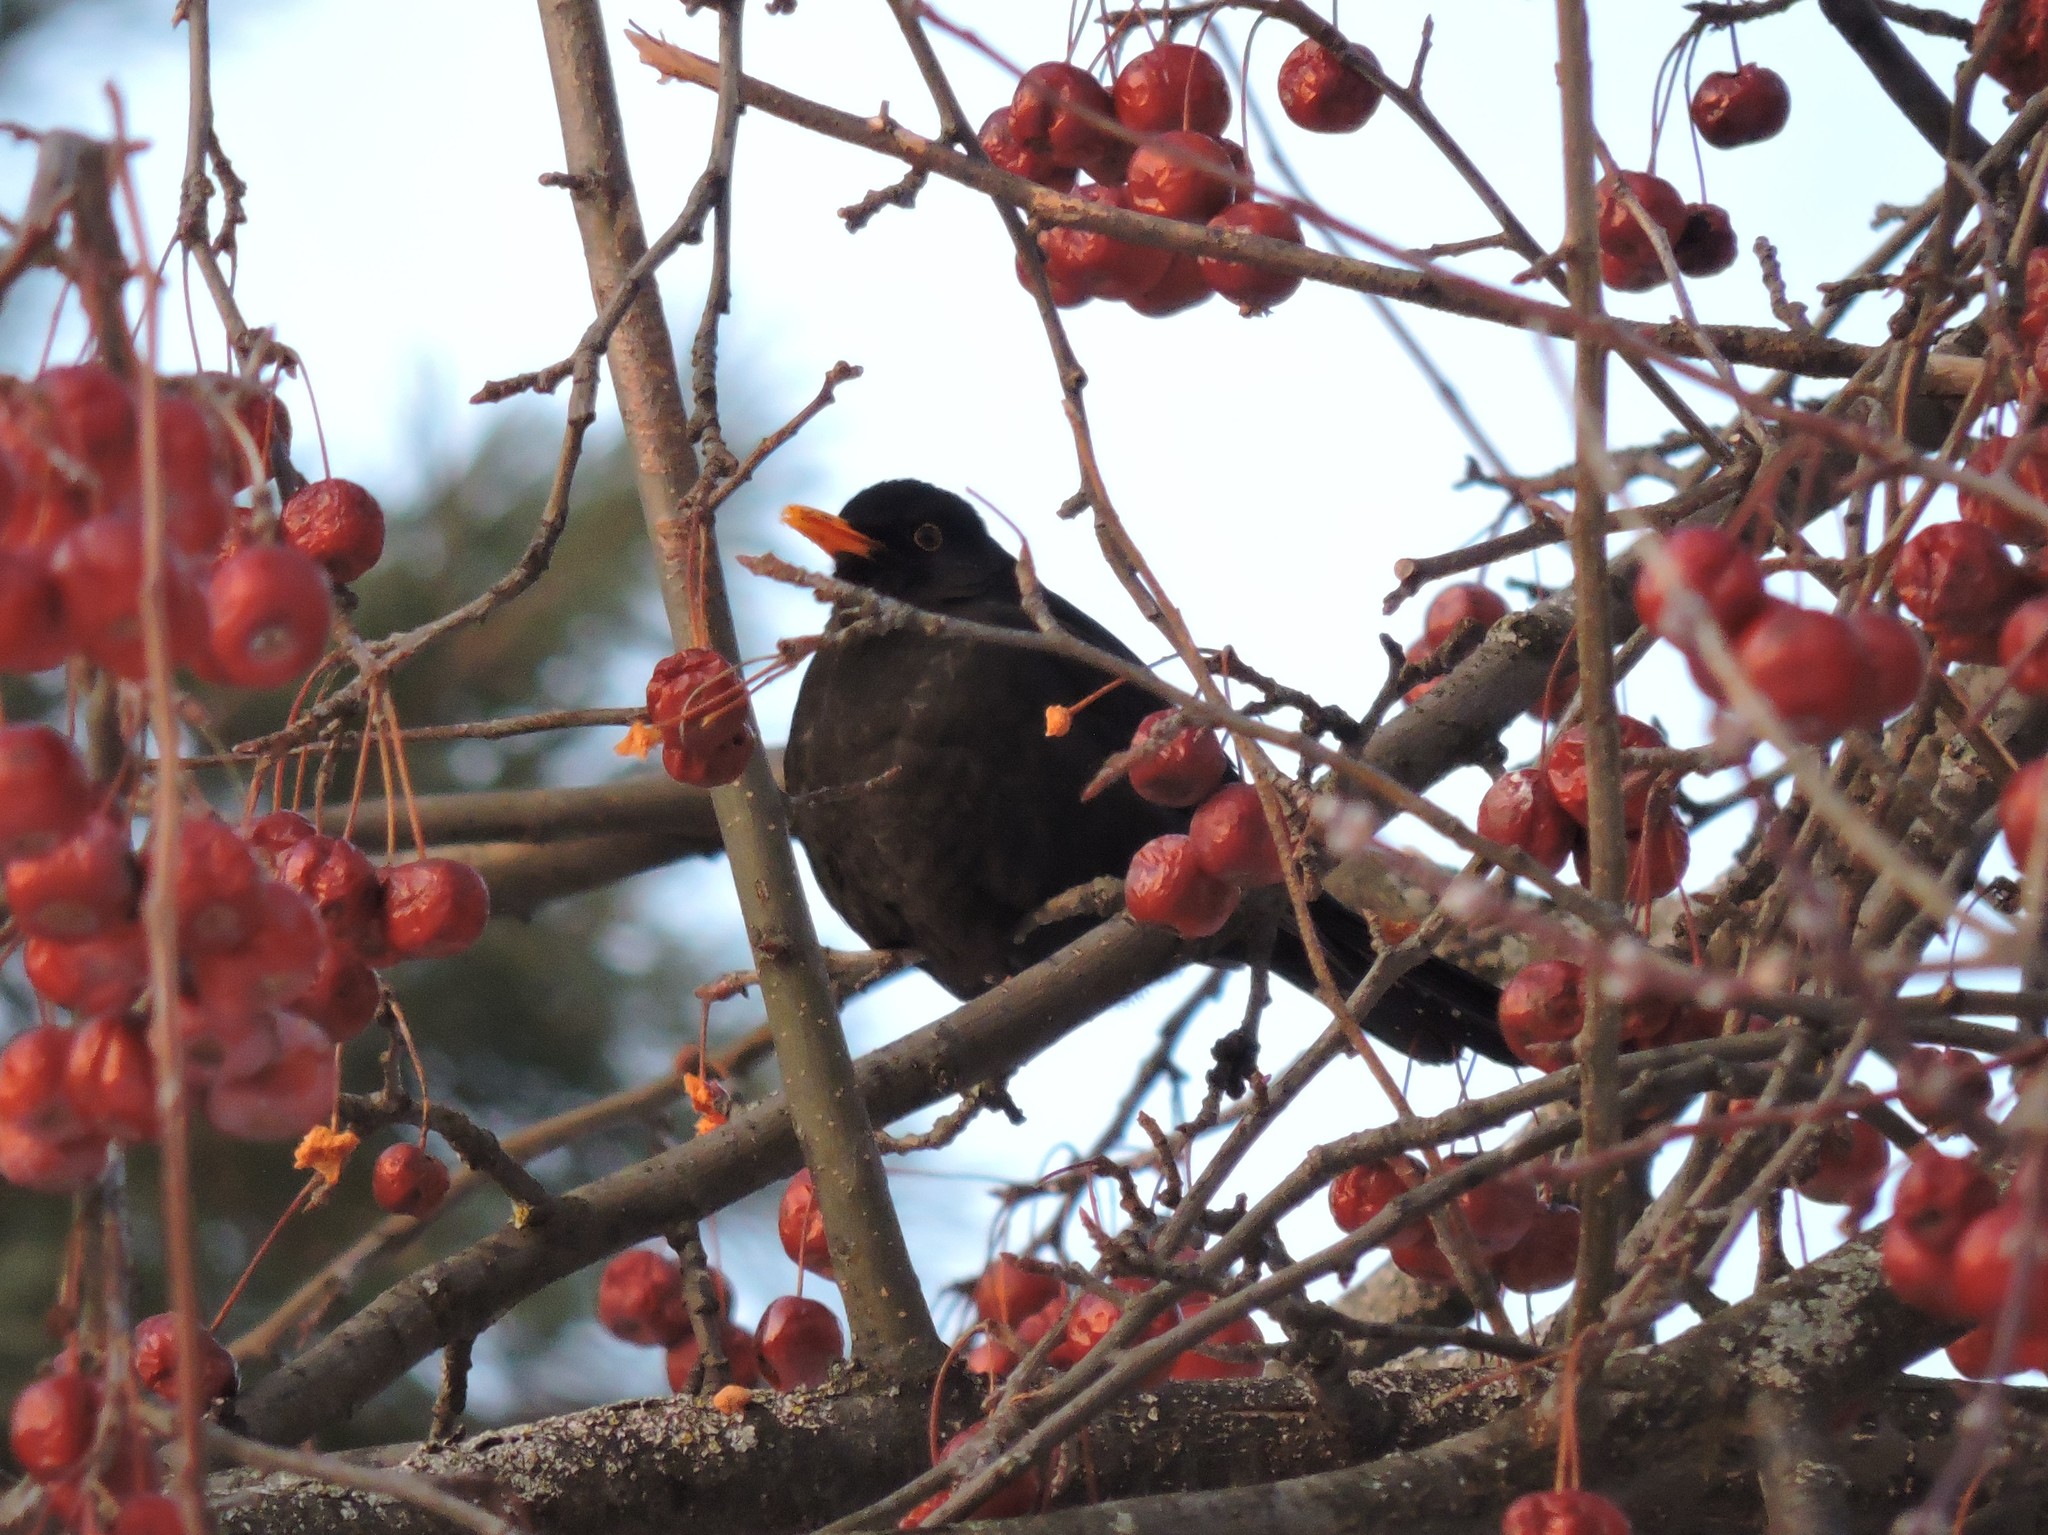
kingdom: Animalia
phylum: Chordata
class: Aves
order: Passeriformes
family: Turdidae
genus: Turdus
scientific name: Turdus merula
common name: Common blackbird
